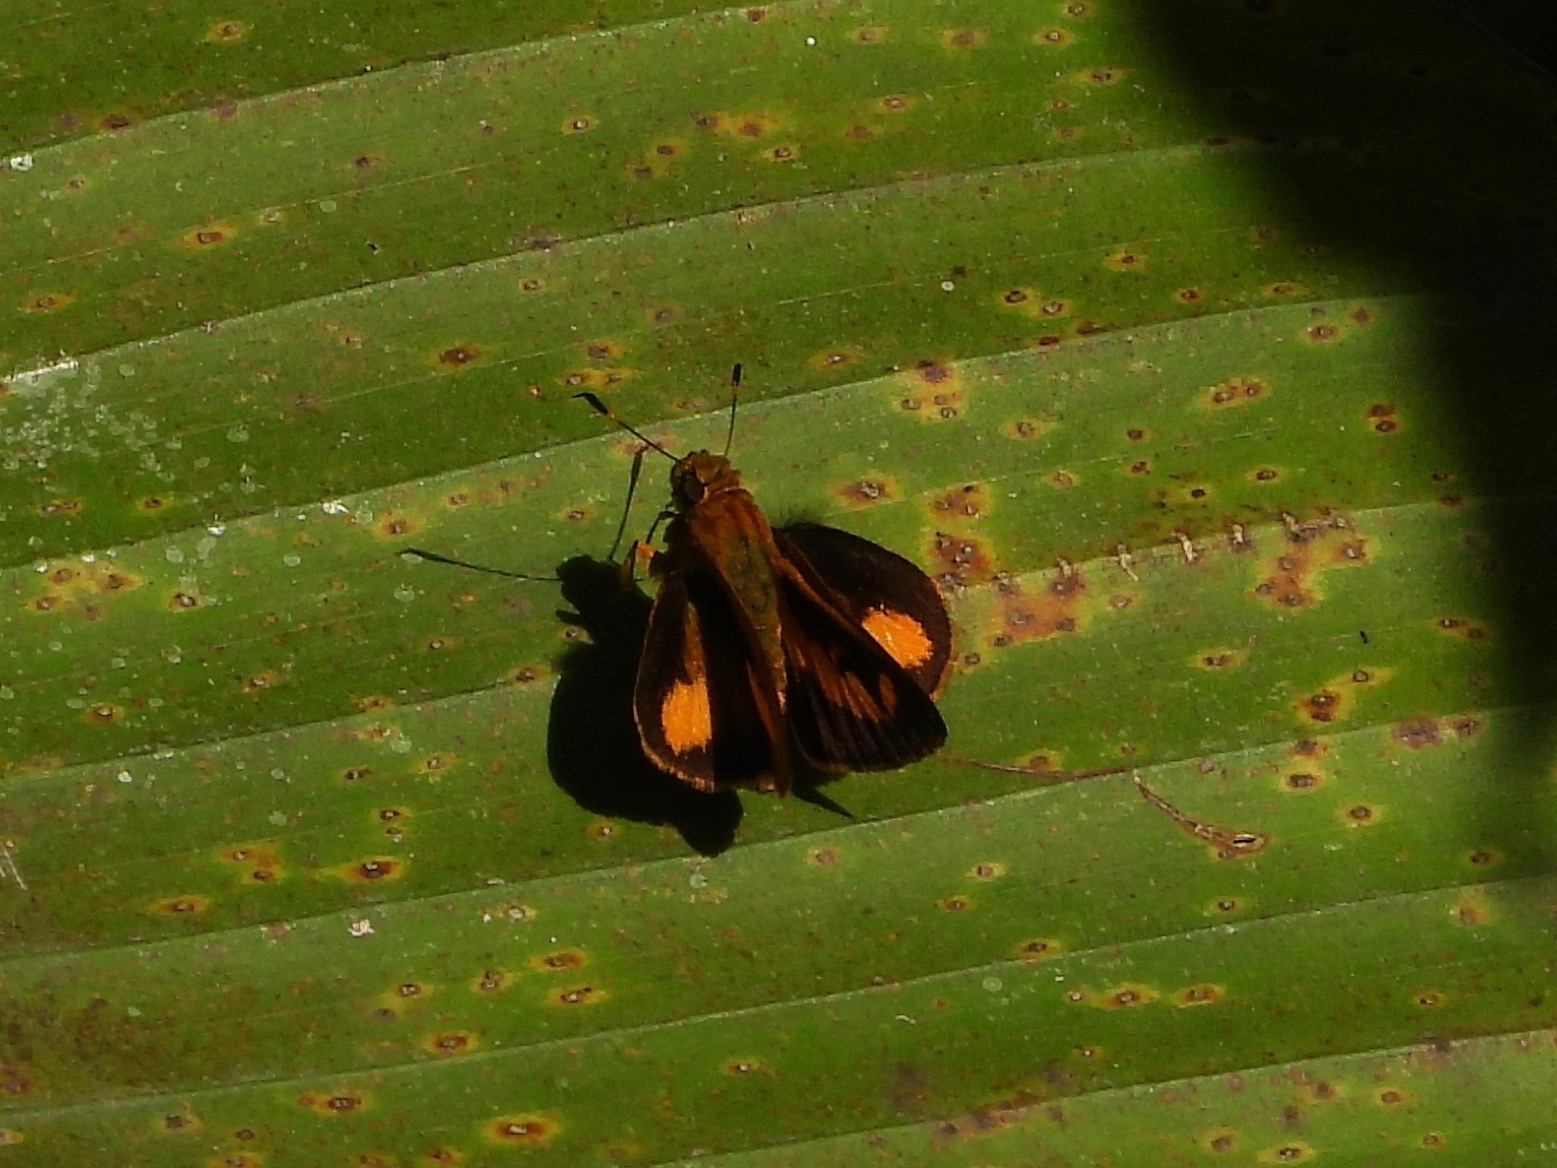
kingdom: Animalia
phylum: Arthropoda
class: Insecta
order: Lepidoptera
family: Hesperiidae
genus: Anthoptus
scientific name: Anthoptus epictetus
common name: Trailside skipper
